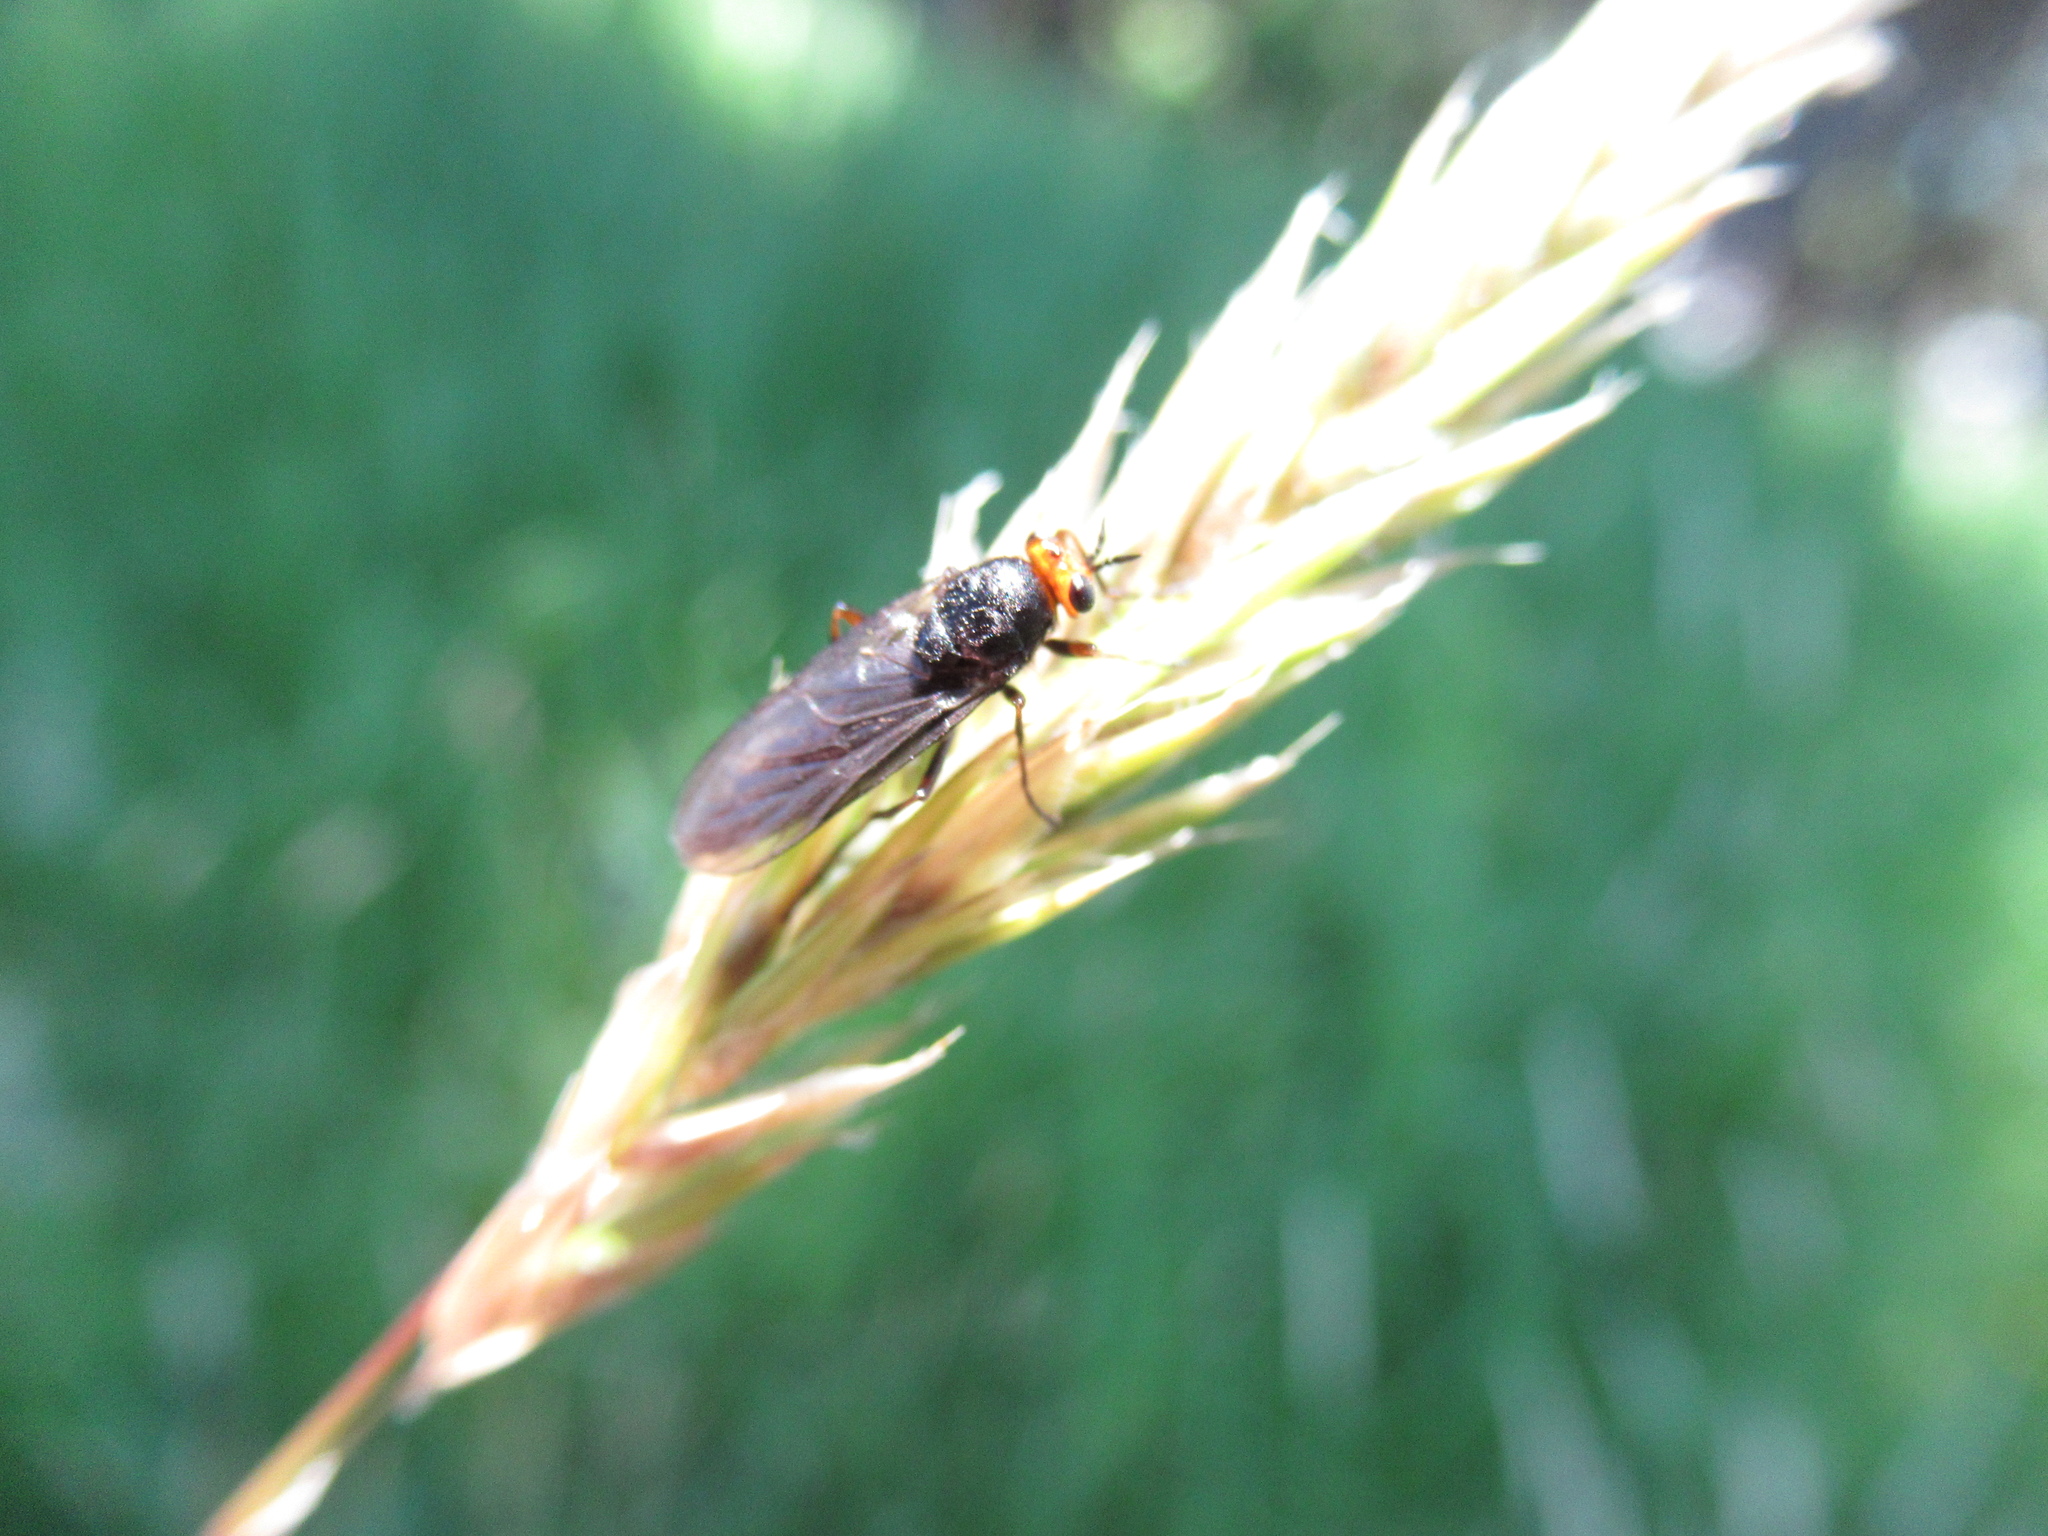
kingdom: Animalia
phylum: Arthropoda
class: Insecta
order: Diptera
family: Stratiomyidae
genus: Inopus
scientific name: Inopus rubriceps
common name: Soldier fly
